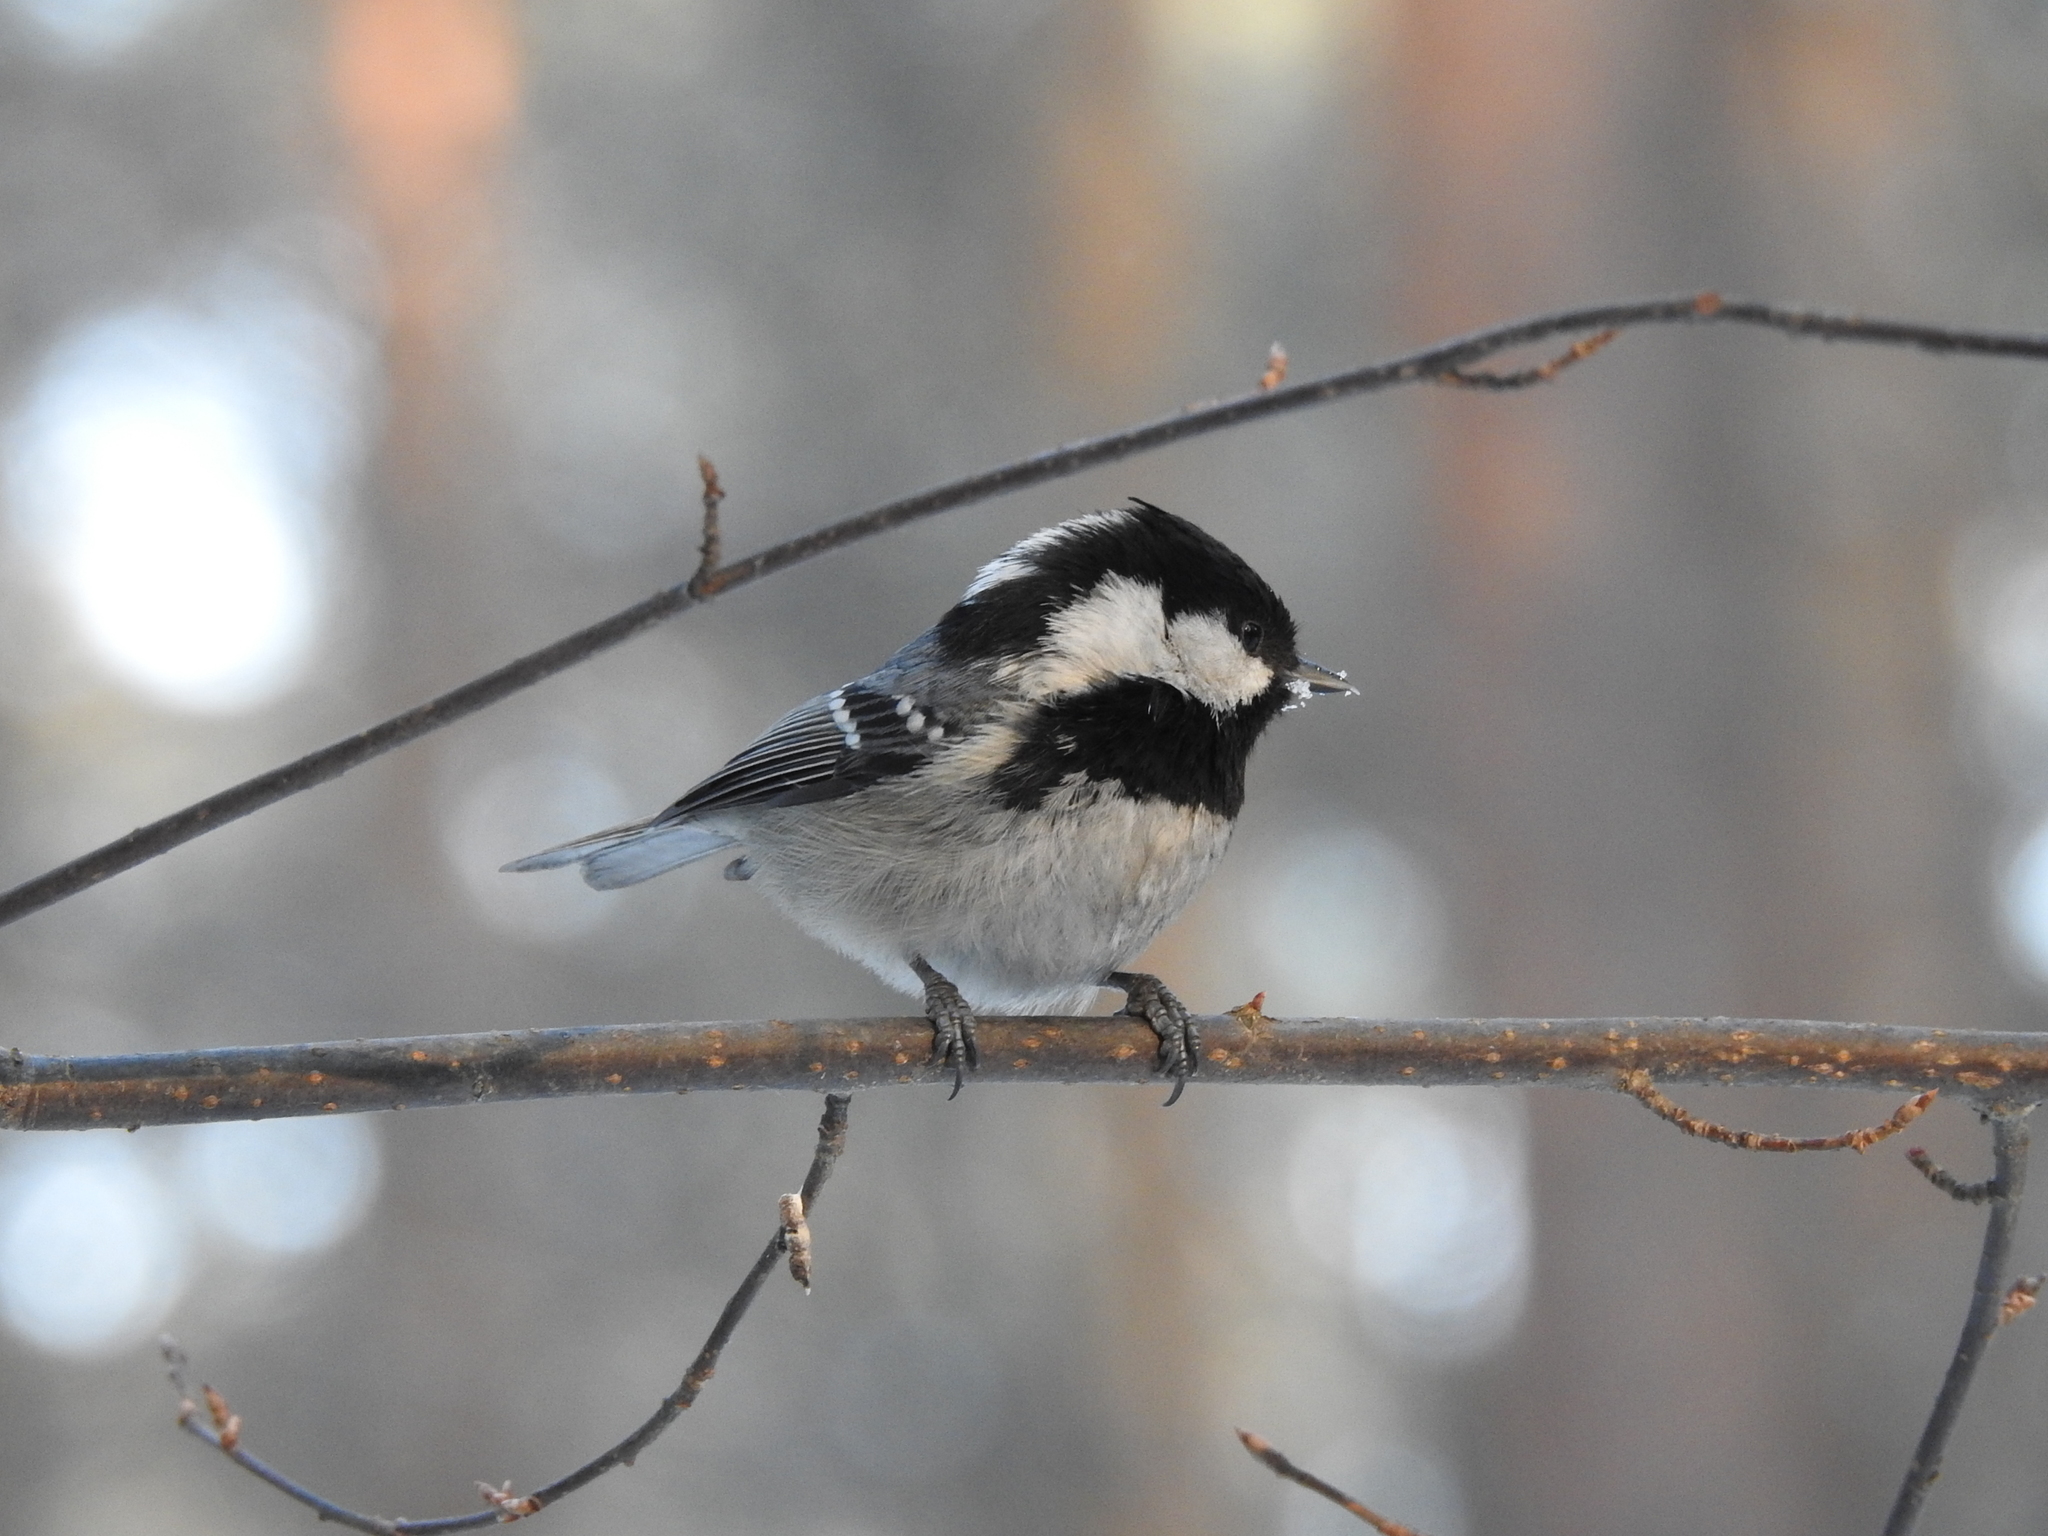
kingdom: Animalia
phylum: Chordata
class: Aves
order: Passeriformes
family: Paridae
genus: Periparus
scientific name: Periparus ater
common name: Coal tit
